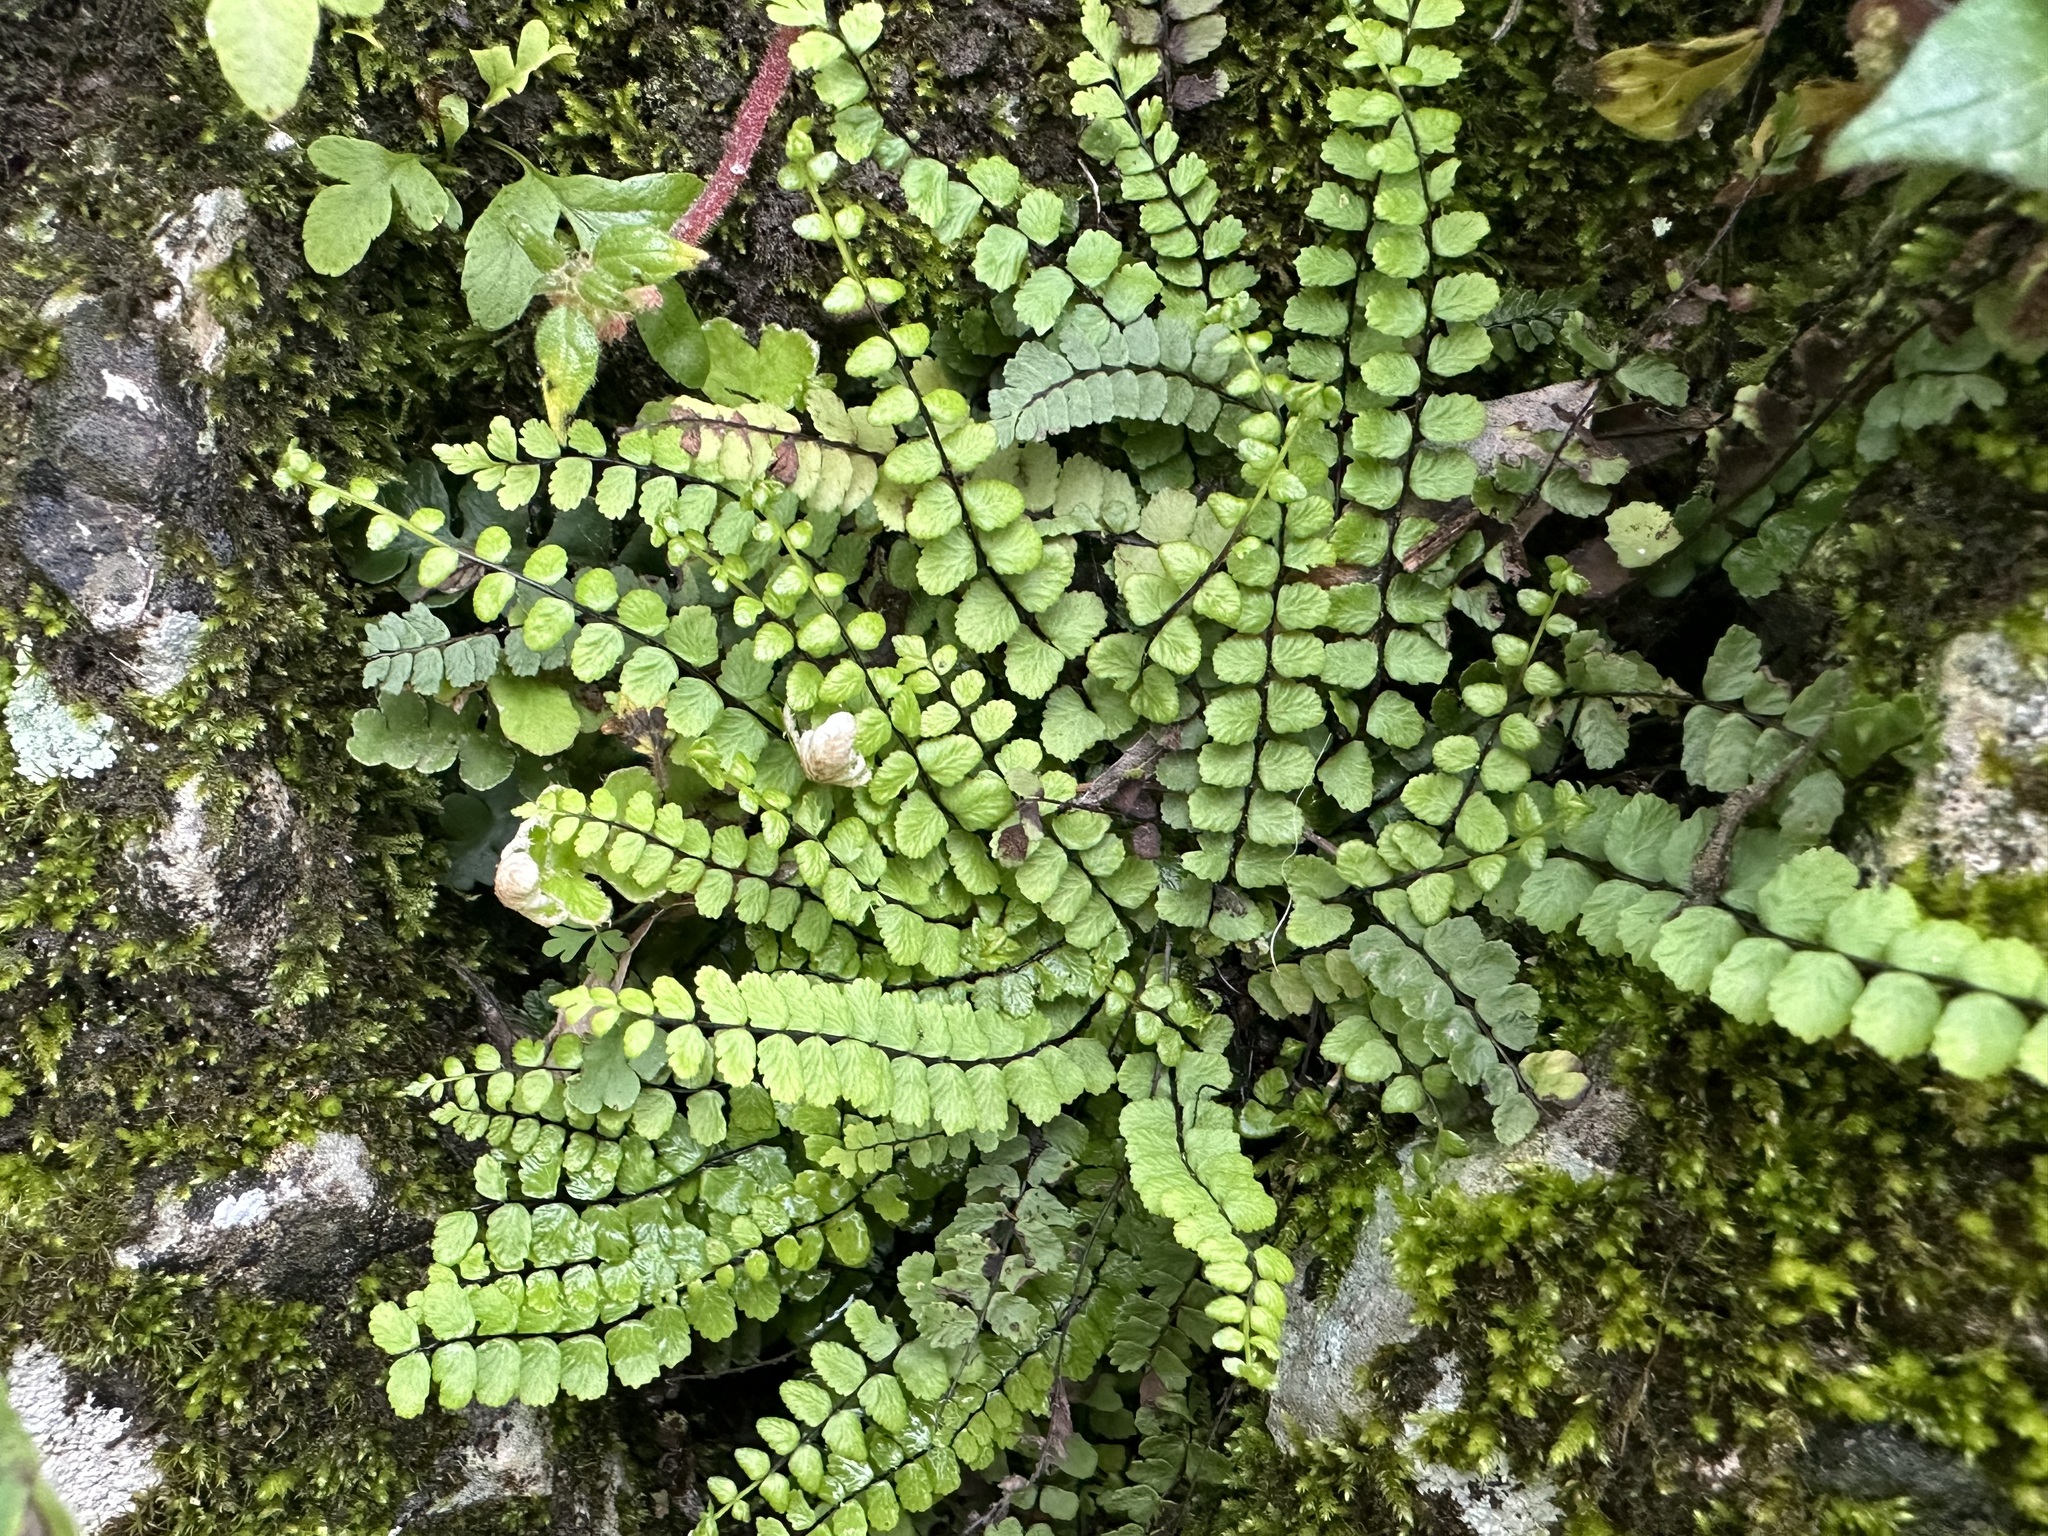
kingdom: Plantae
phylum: Tracheophyta
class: Polypodiopsida
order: Polypodiales
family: Aspleniaceae
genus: Asplenium
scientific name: Asplenium trichomanes
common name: Maidenhair spleenwort
